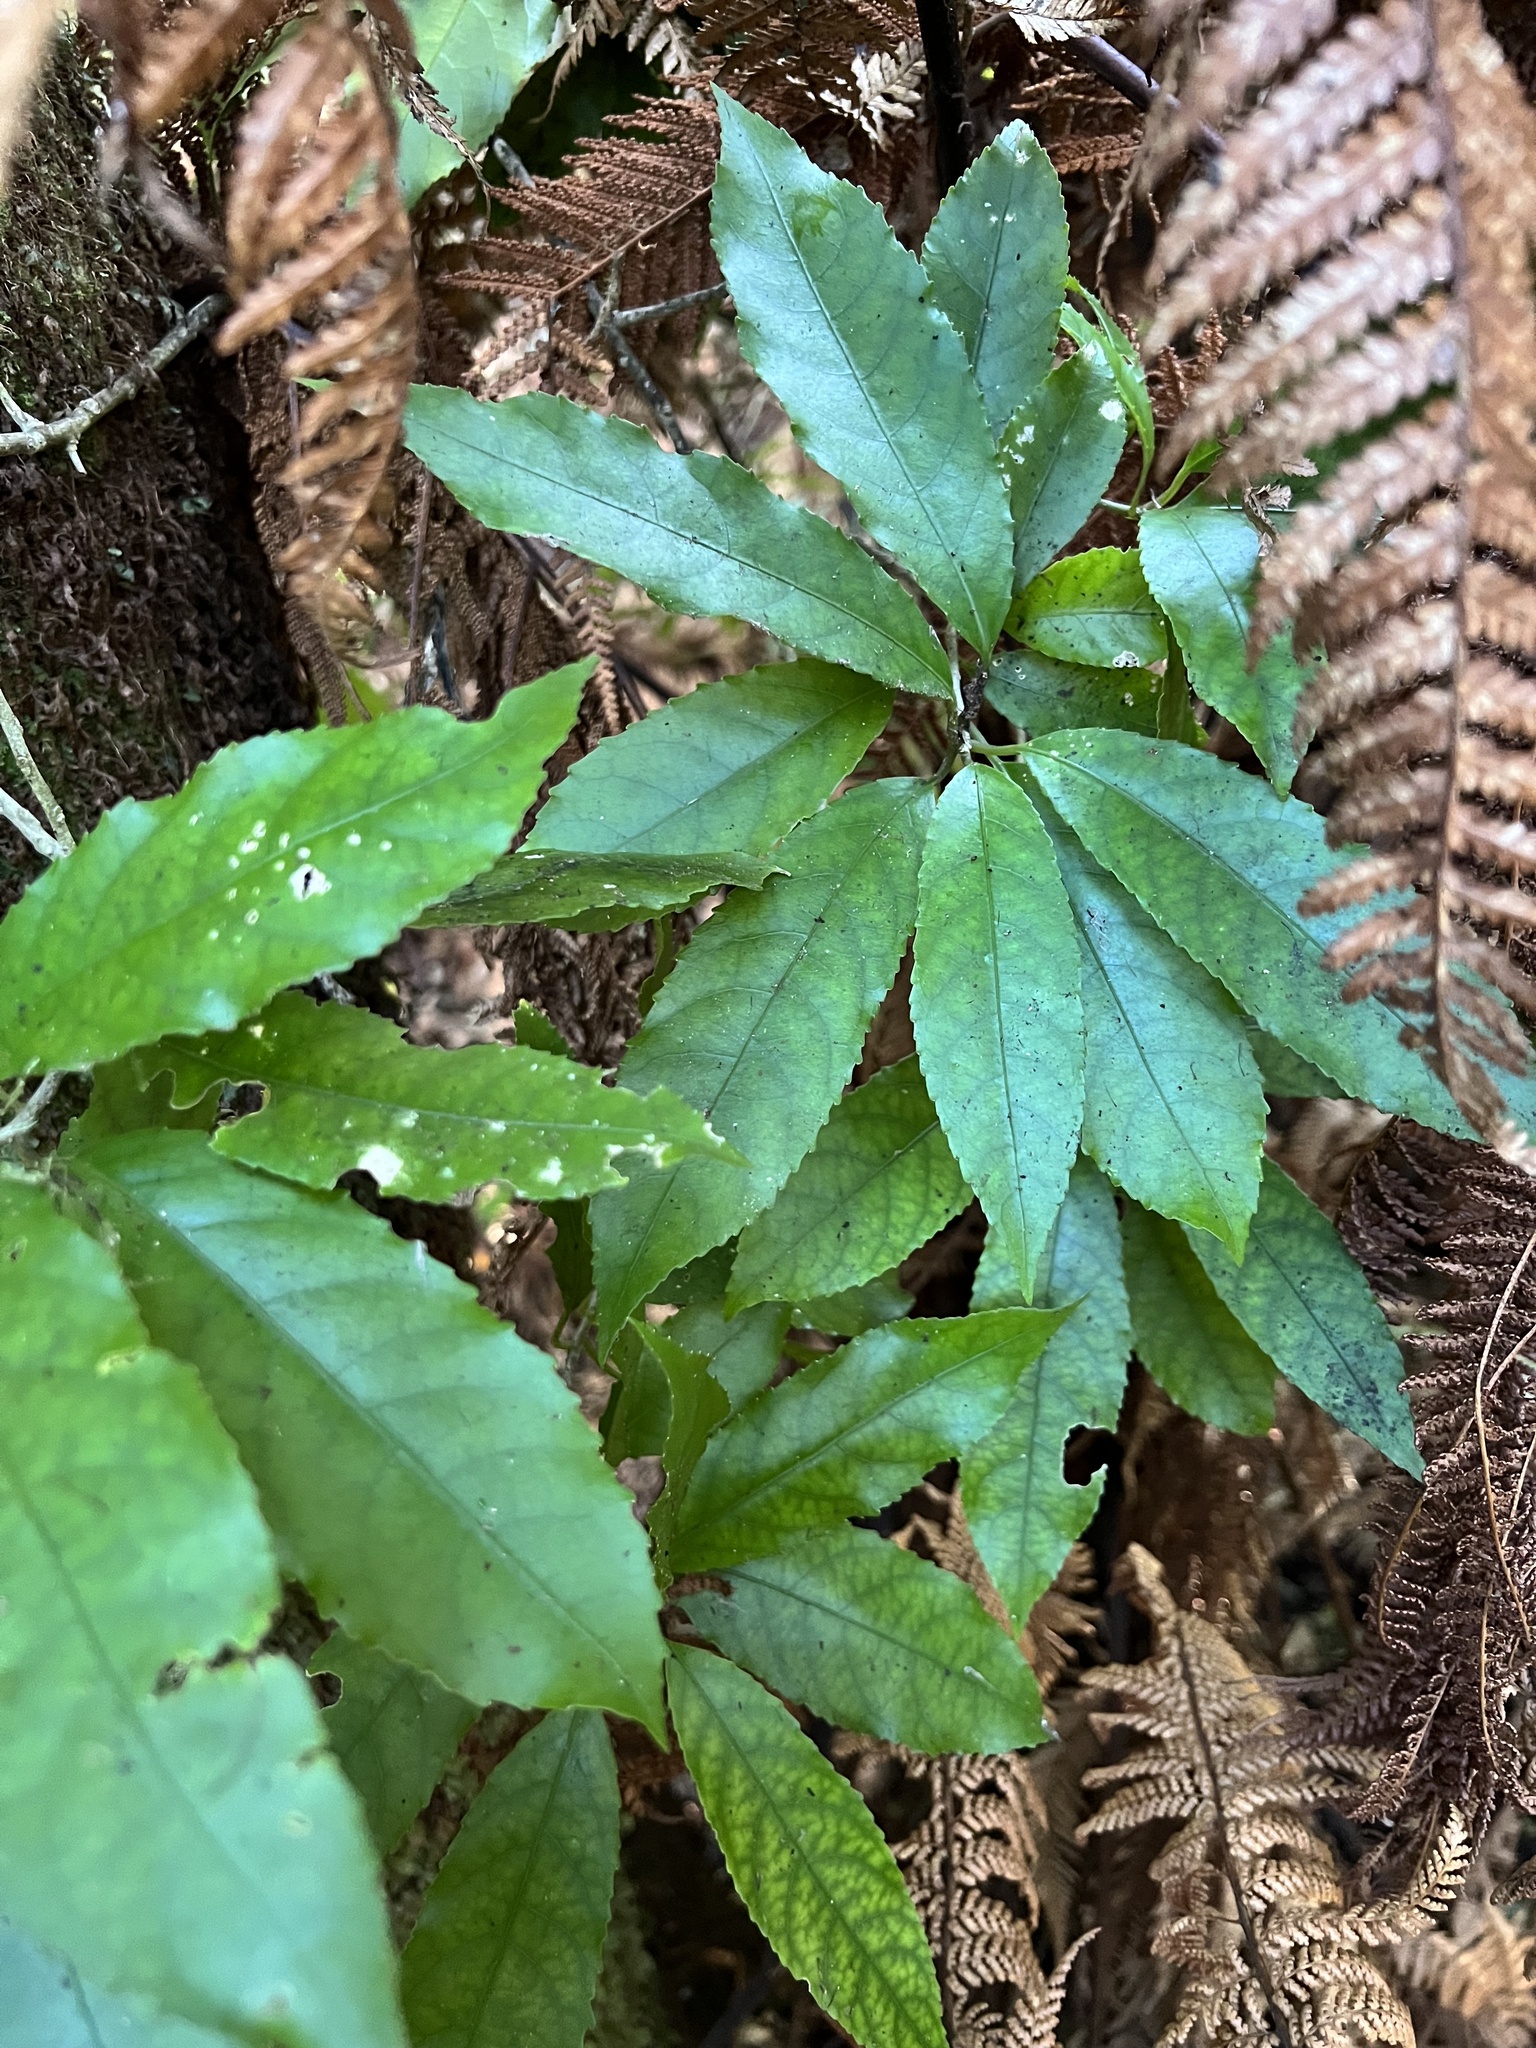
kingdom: Plantae
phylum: Tracheophyta
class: Magnoliopsida
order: Malpighiales
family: Violaceae
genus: Melicytus
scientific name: Melicytus ramiflorus
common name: Mahoe
